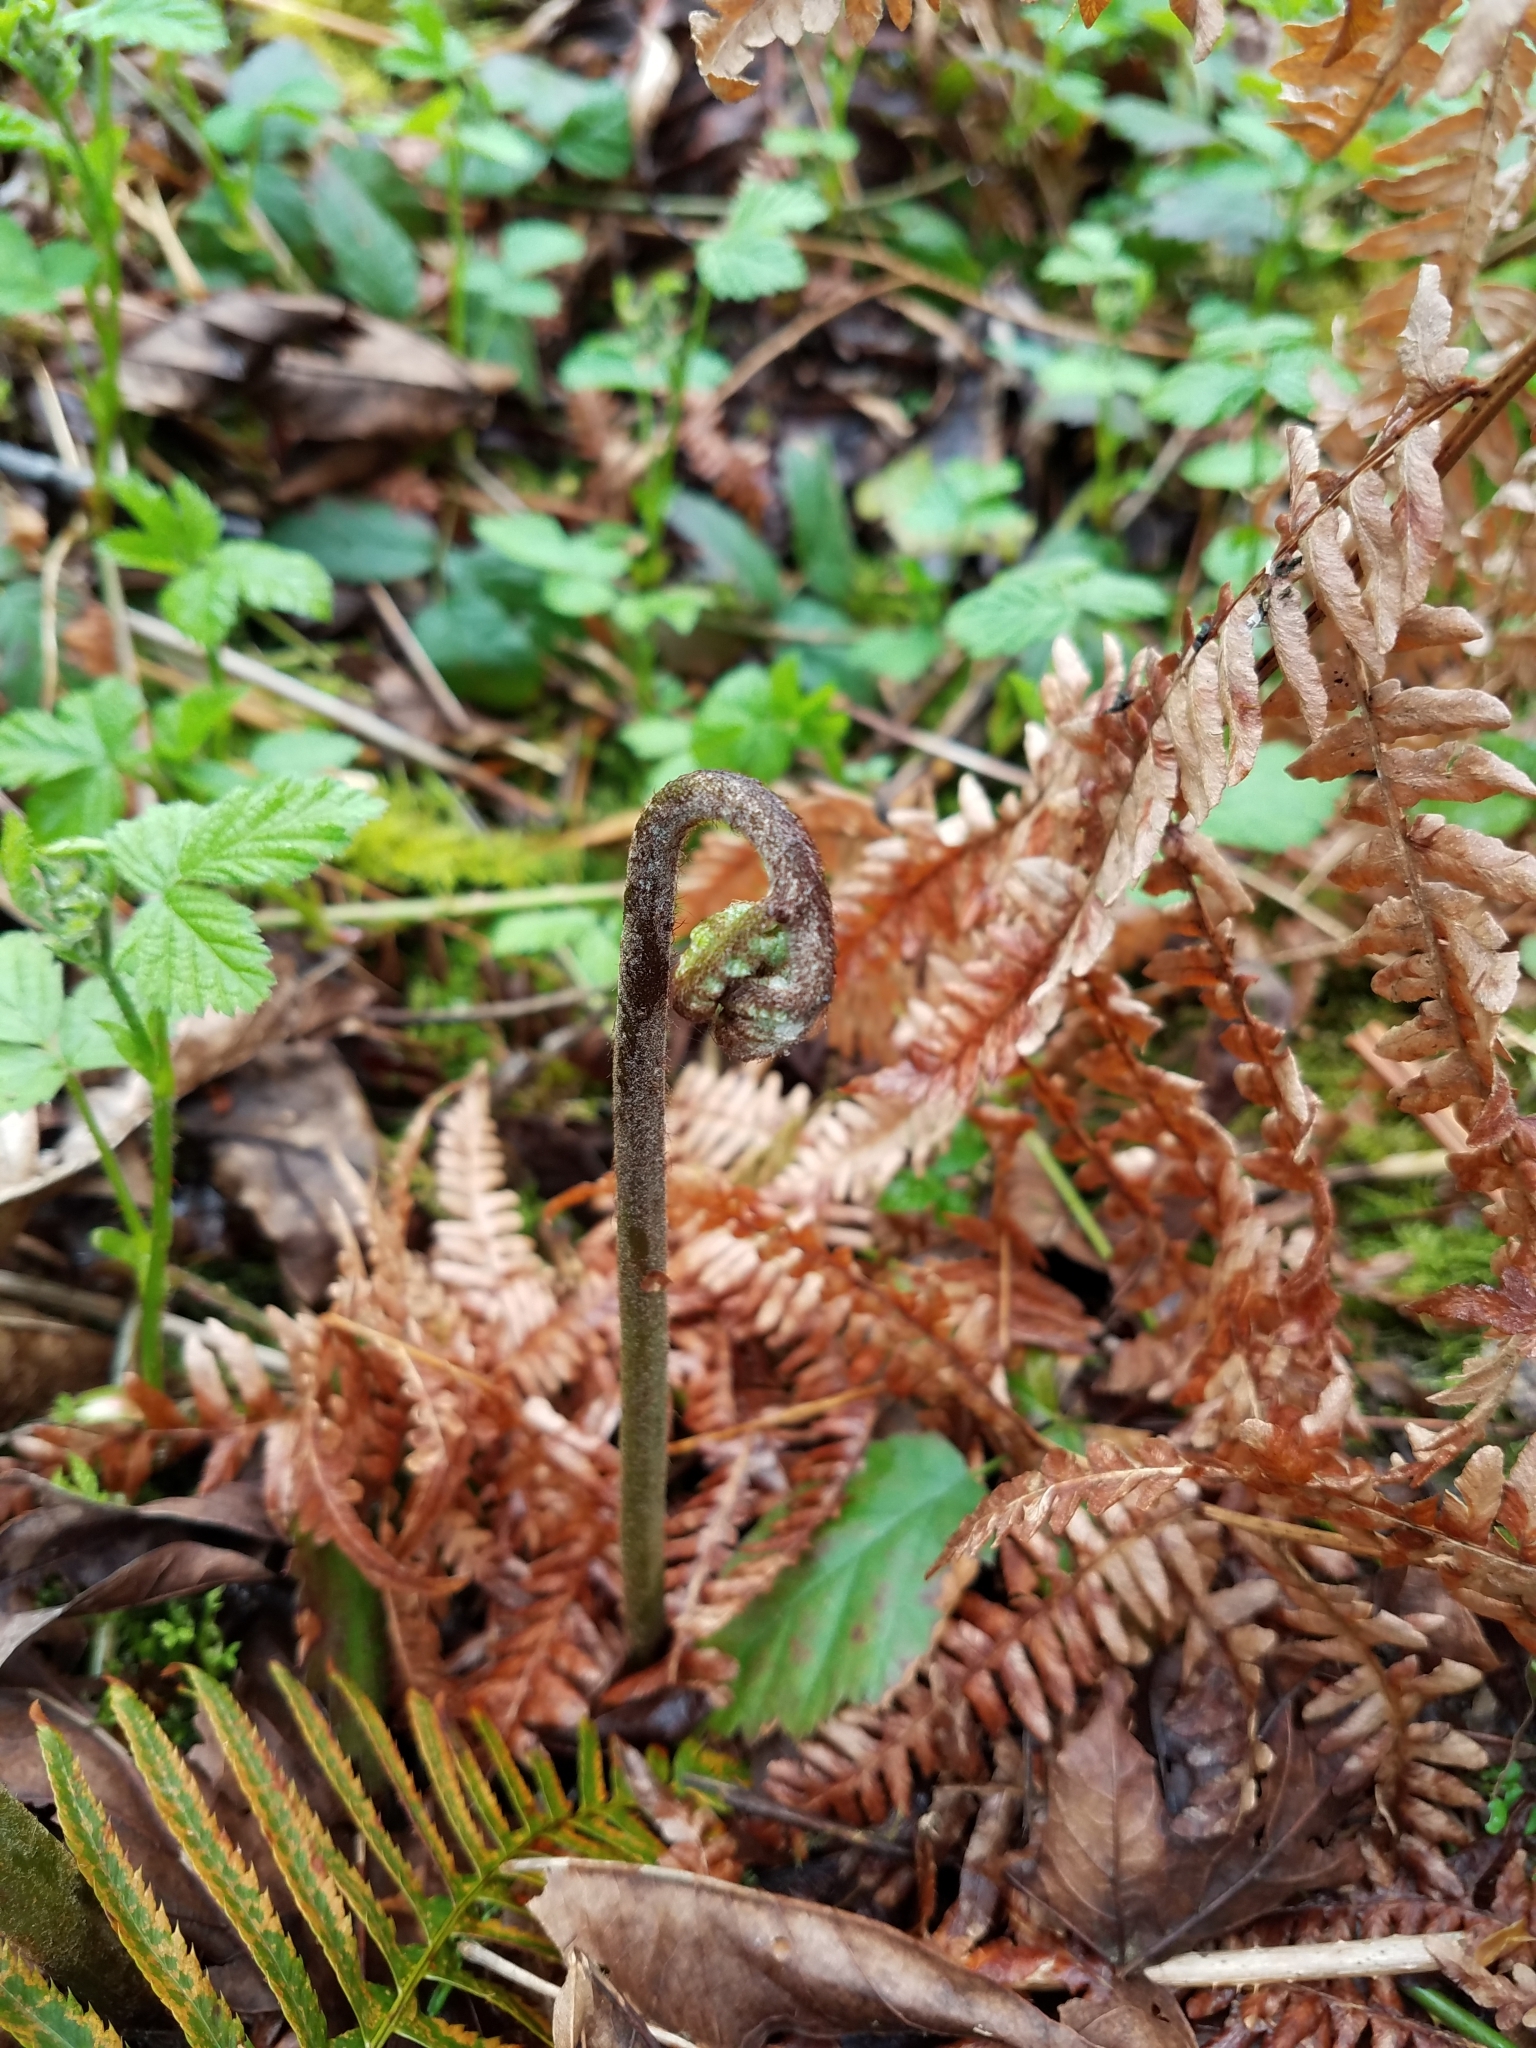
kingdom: Plantae
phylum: Tracheophyta
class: Polypodiopsida
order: Polypodiales
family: Dennstaedtiaceae
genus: Pteridium
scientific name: Pteridium aquilinum
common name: Bracken
